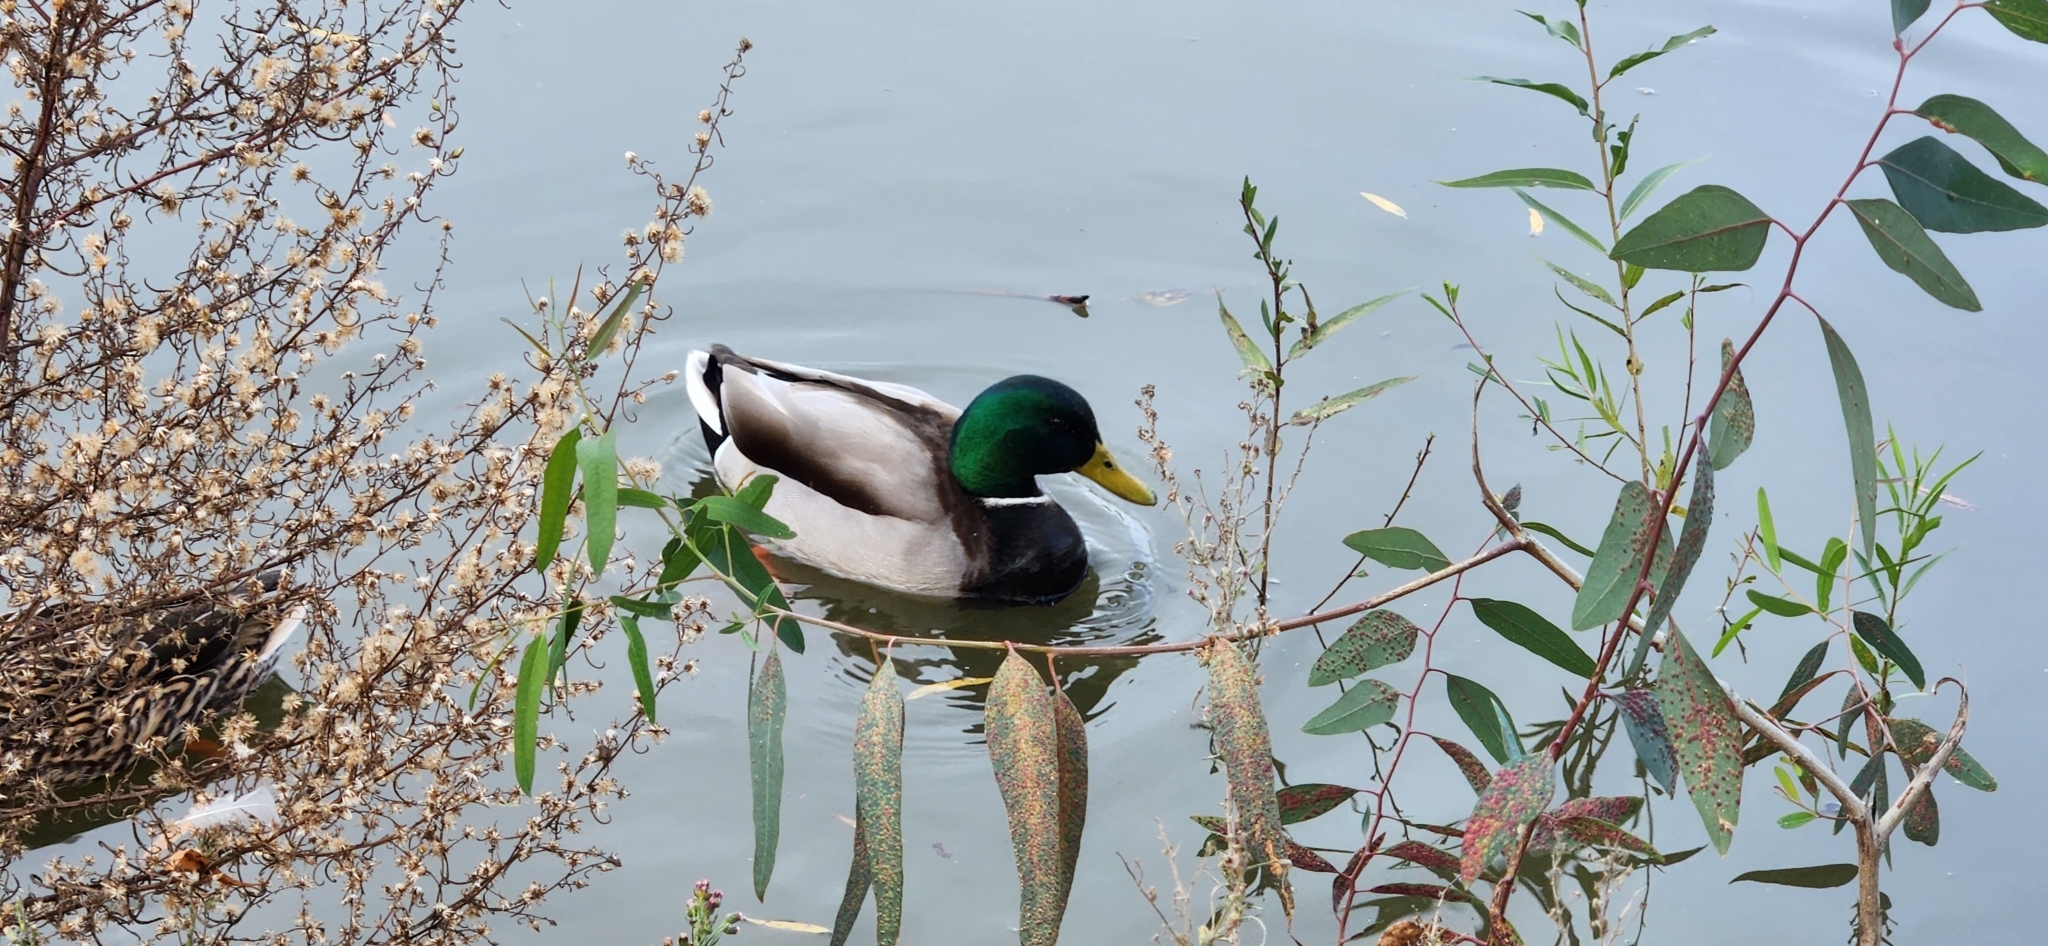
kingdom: Animalia
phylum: Chordata
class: Aves
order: Anseriformes
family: Anatidae
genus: Anas
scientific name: Anas platyrhynchos
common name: Mallard
